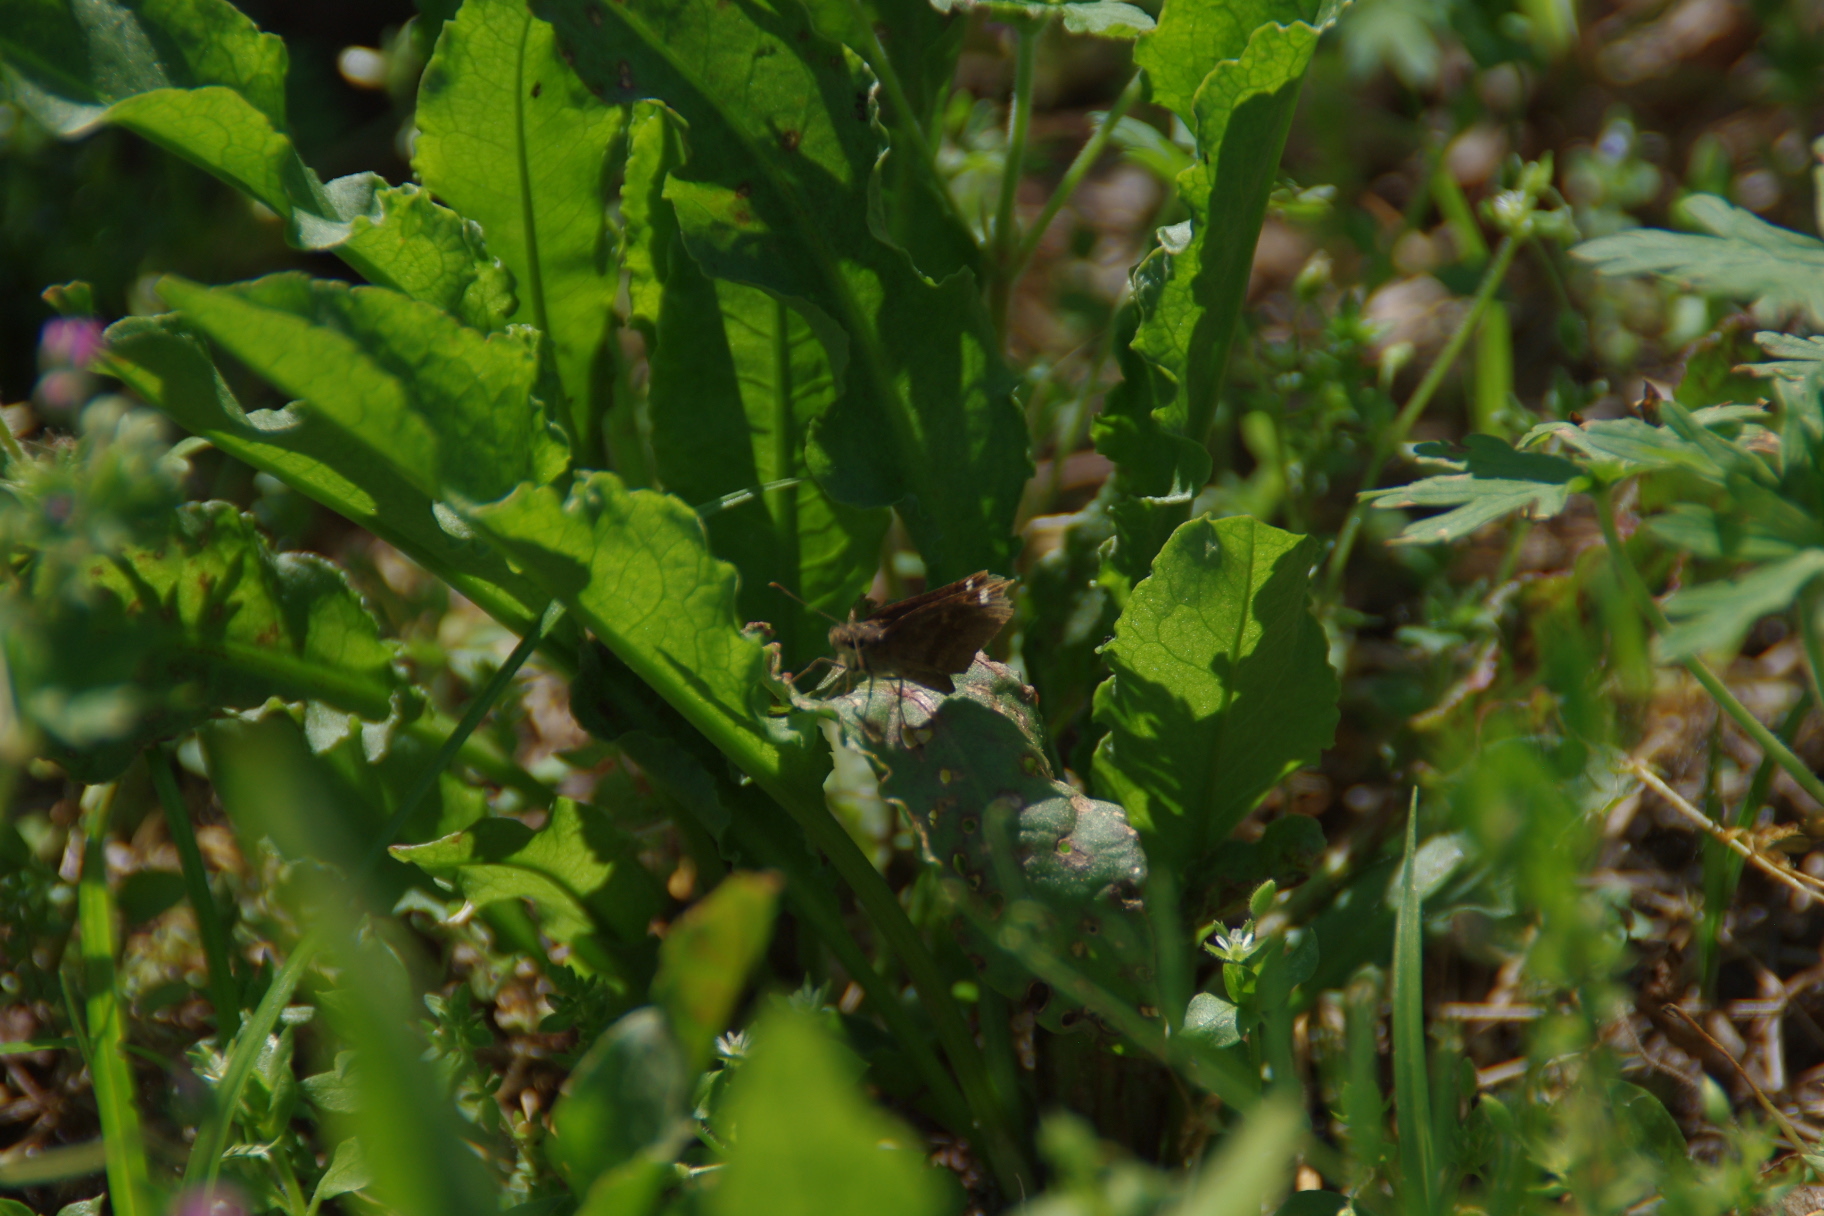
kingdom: Animalia
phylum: Arthropoda
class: Insecta
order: Lepidoptera
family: Hesperiidae
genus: Lerema
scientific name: Lerema accius
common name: Clouded skipper
